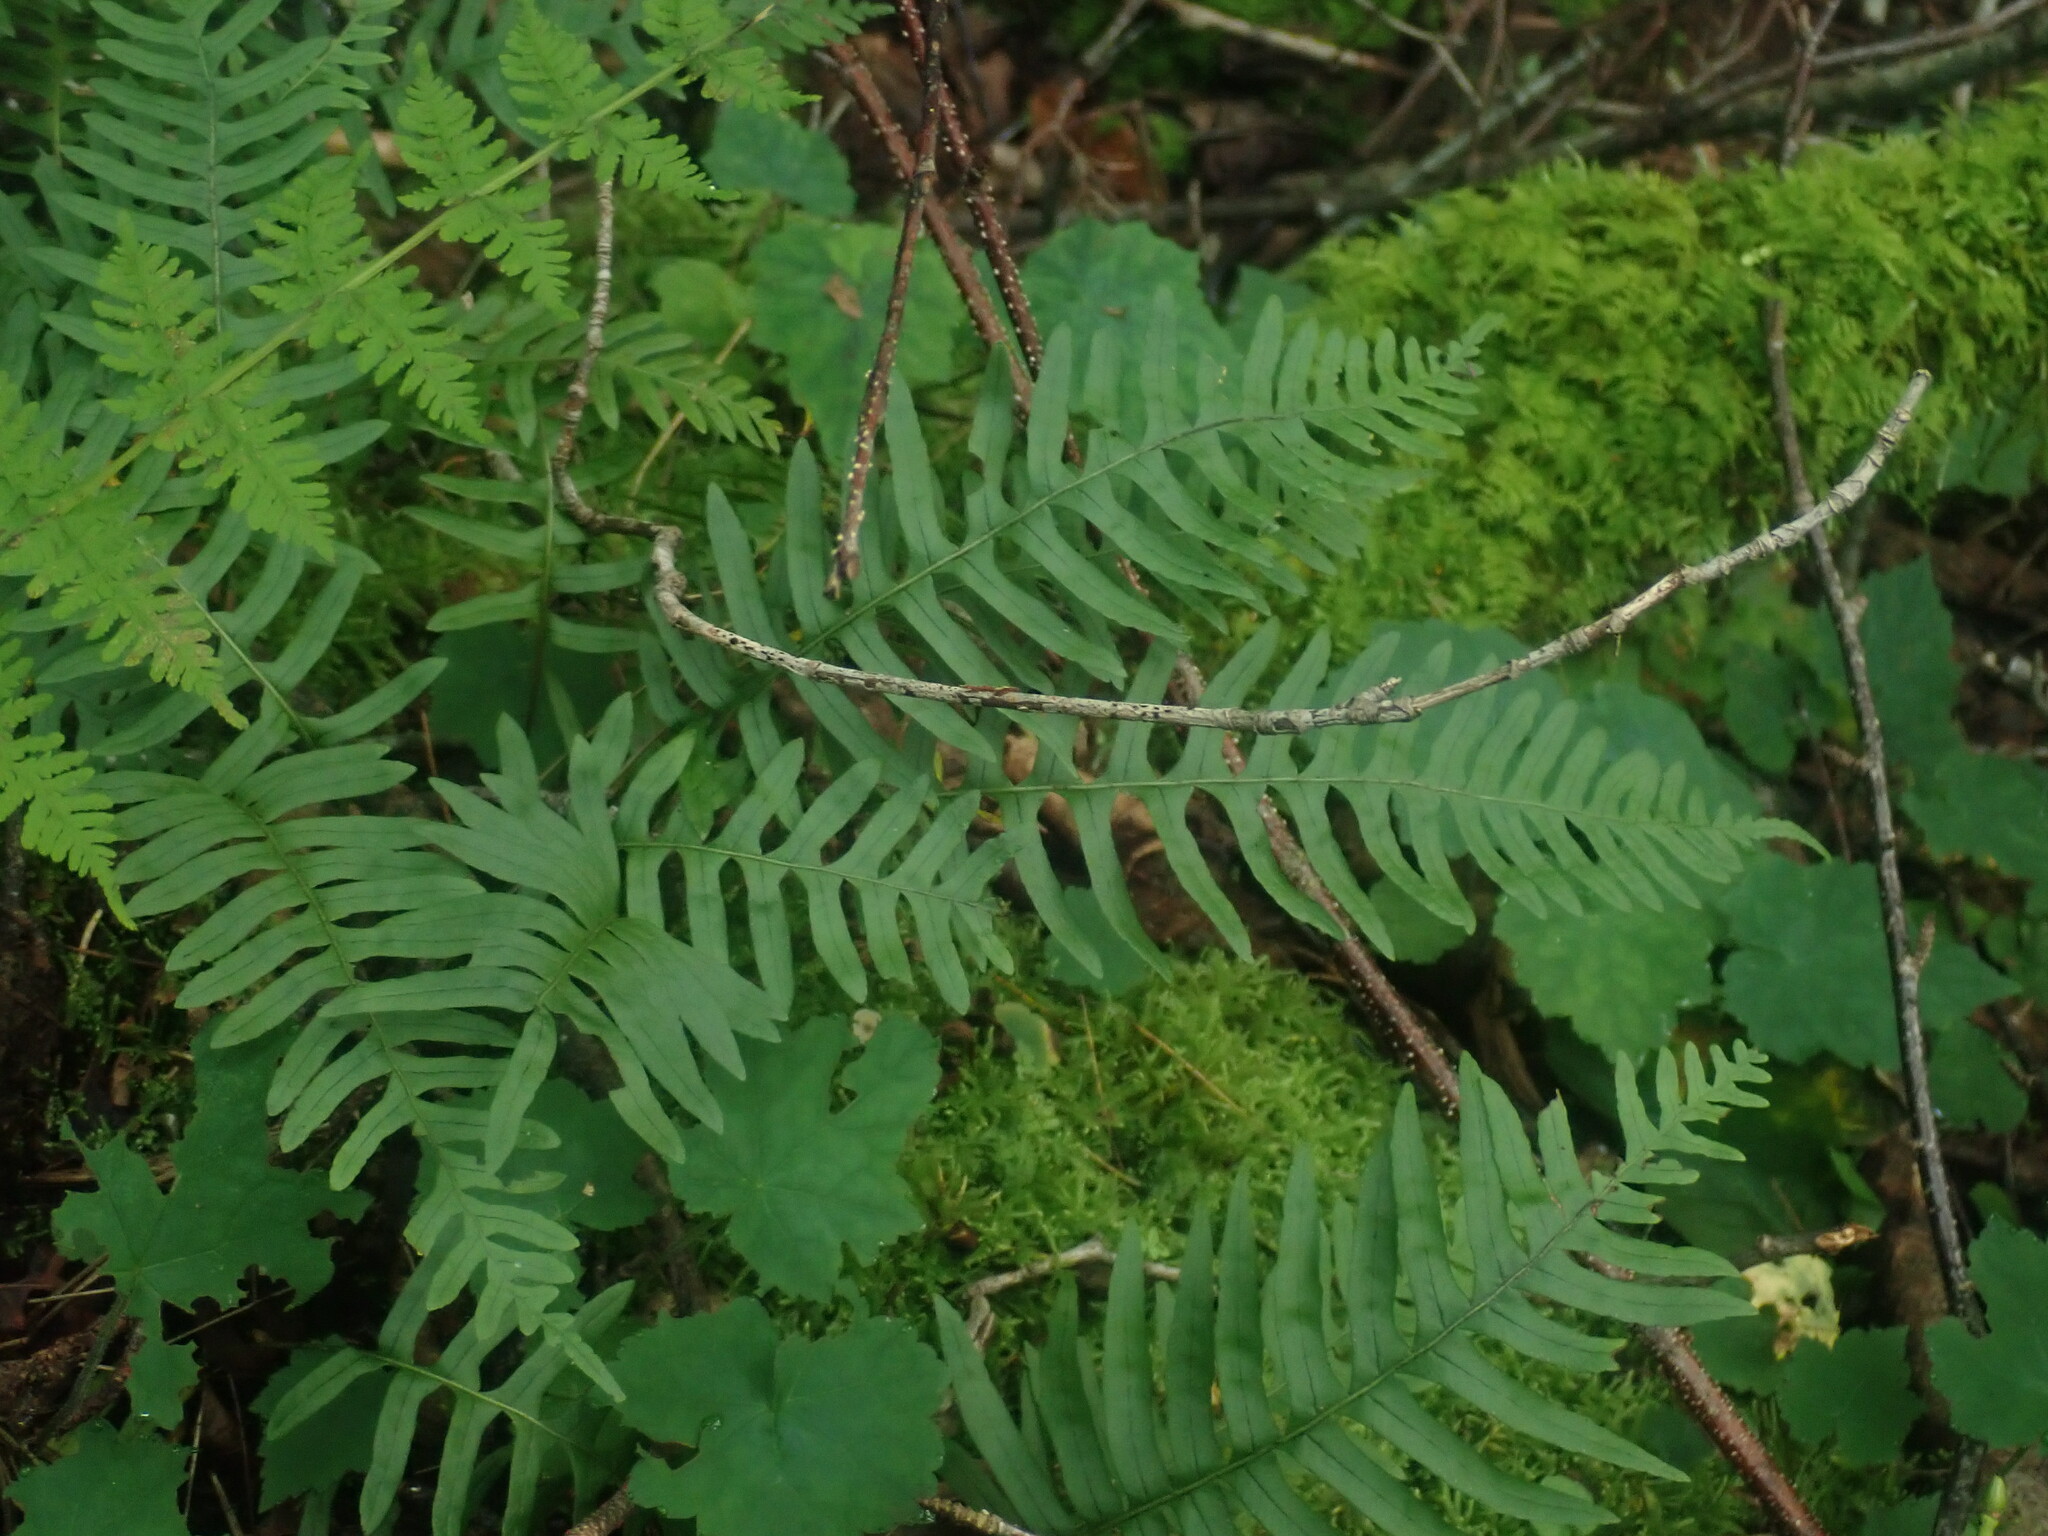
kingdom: Plantae
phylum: Tracheophyta
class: Polypodiopsida
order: Polypodiales
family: Polypodiaceae
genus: Polypodium
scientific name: Polypodium
